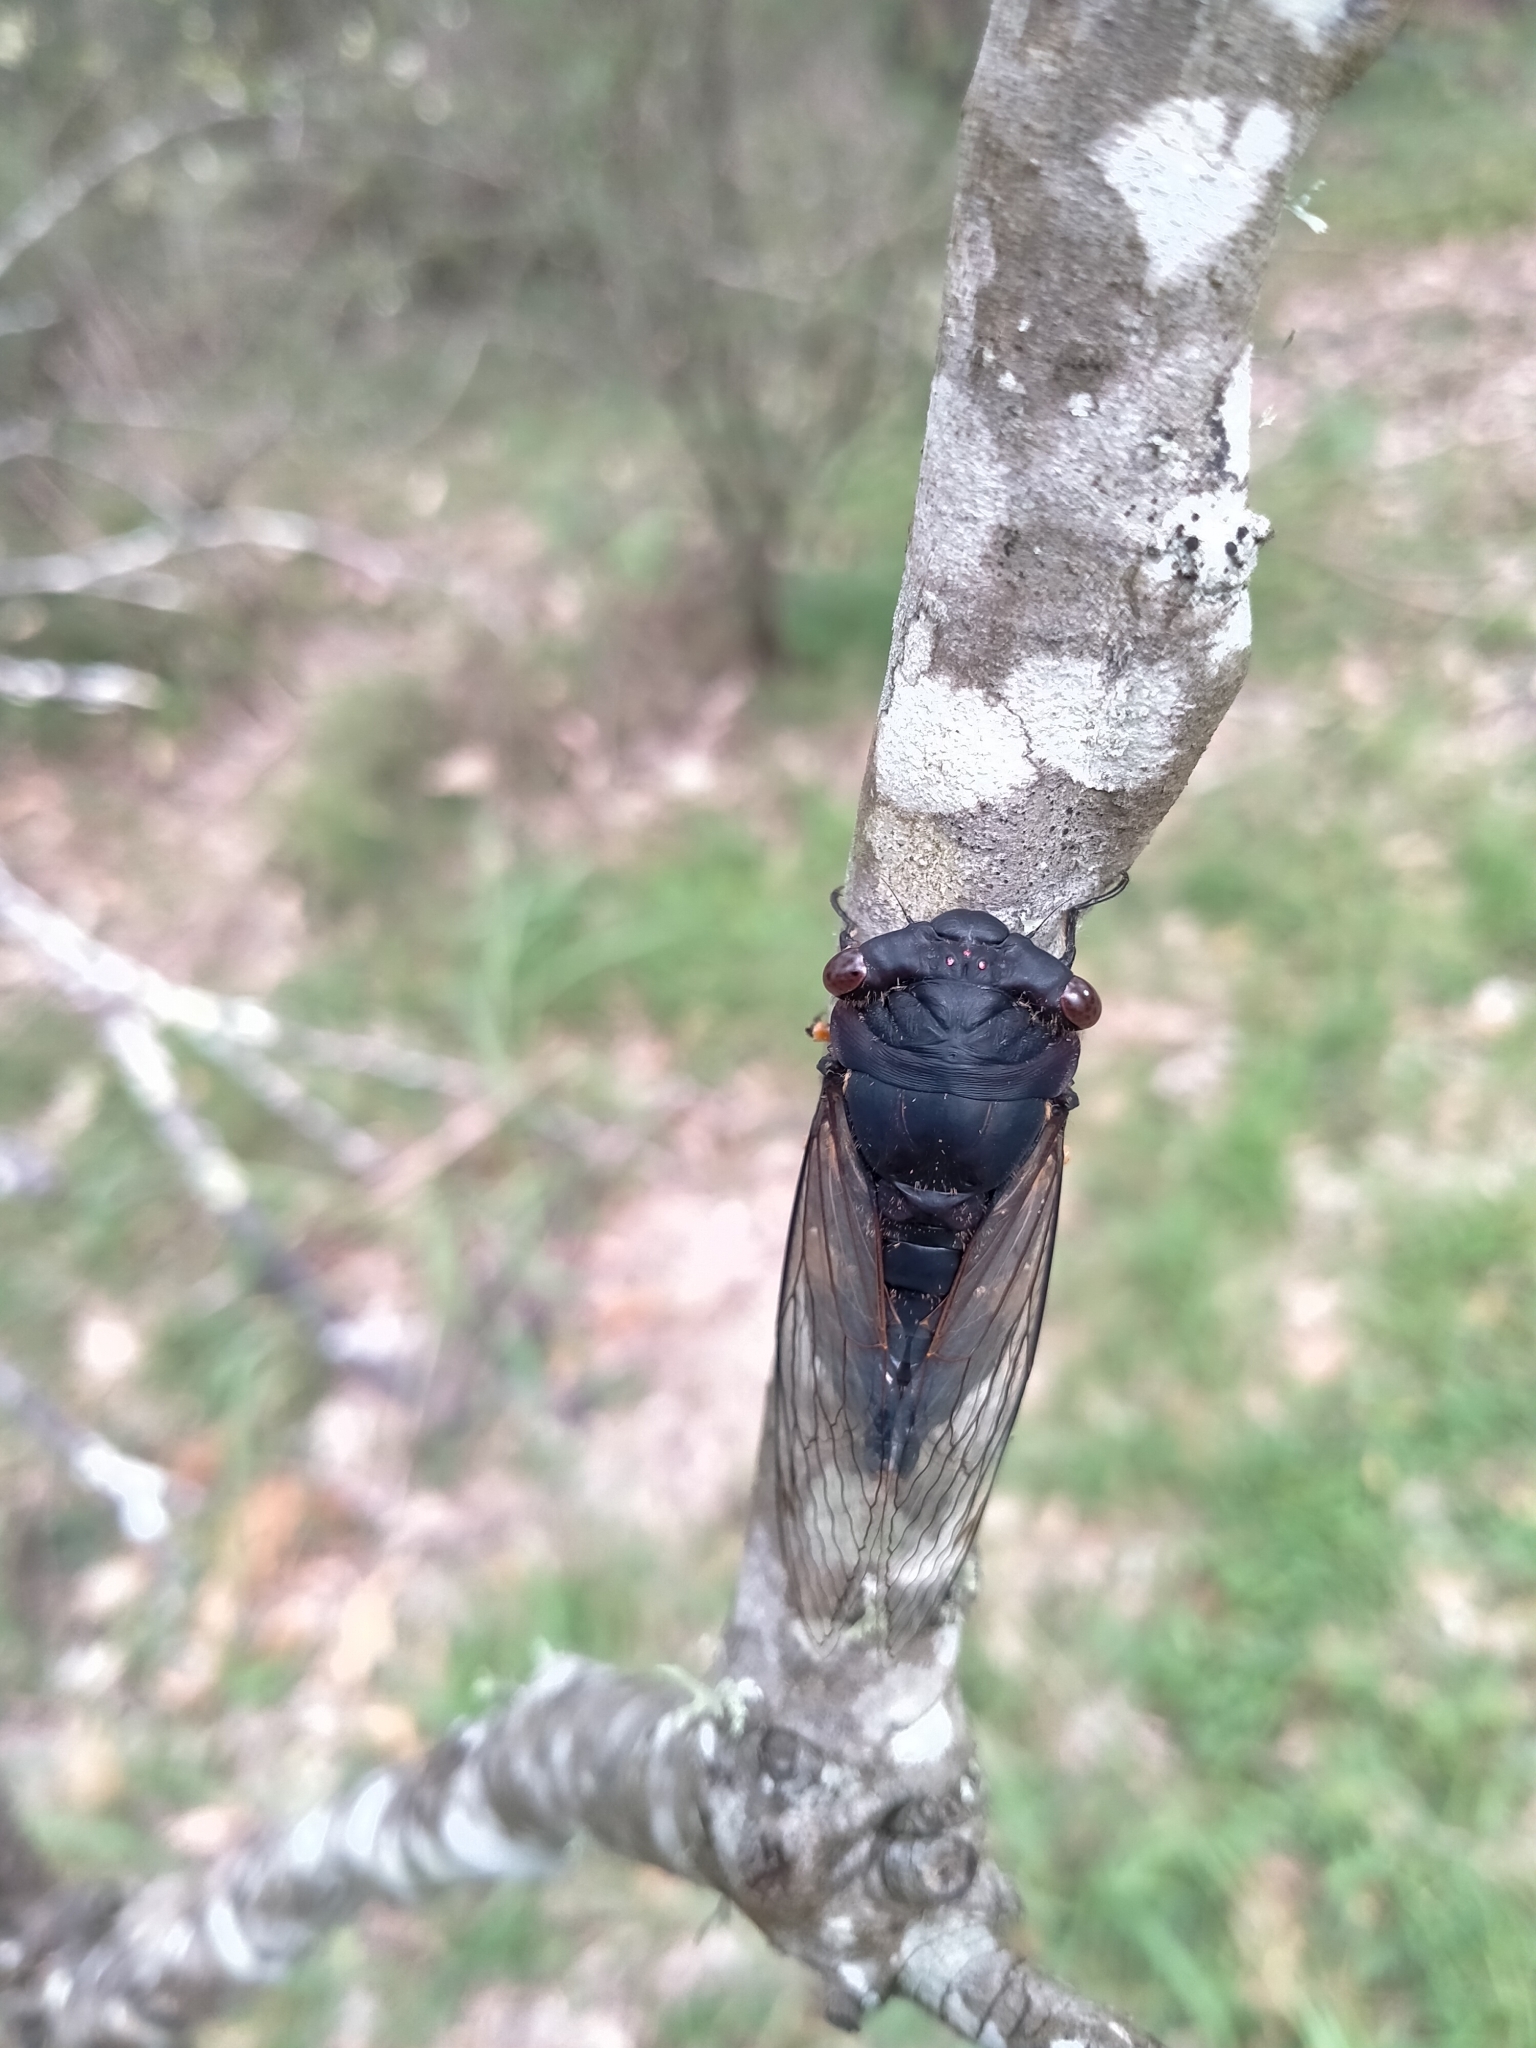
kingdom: Animalia
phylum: Arthropoda
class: Insecta
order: Hemiptera
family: Cicadidae
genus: Psaltoda
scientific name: Psaltoda plaga
